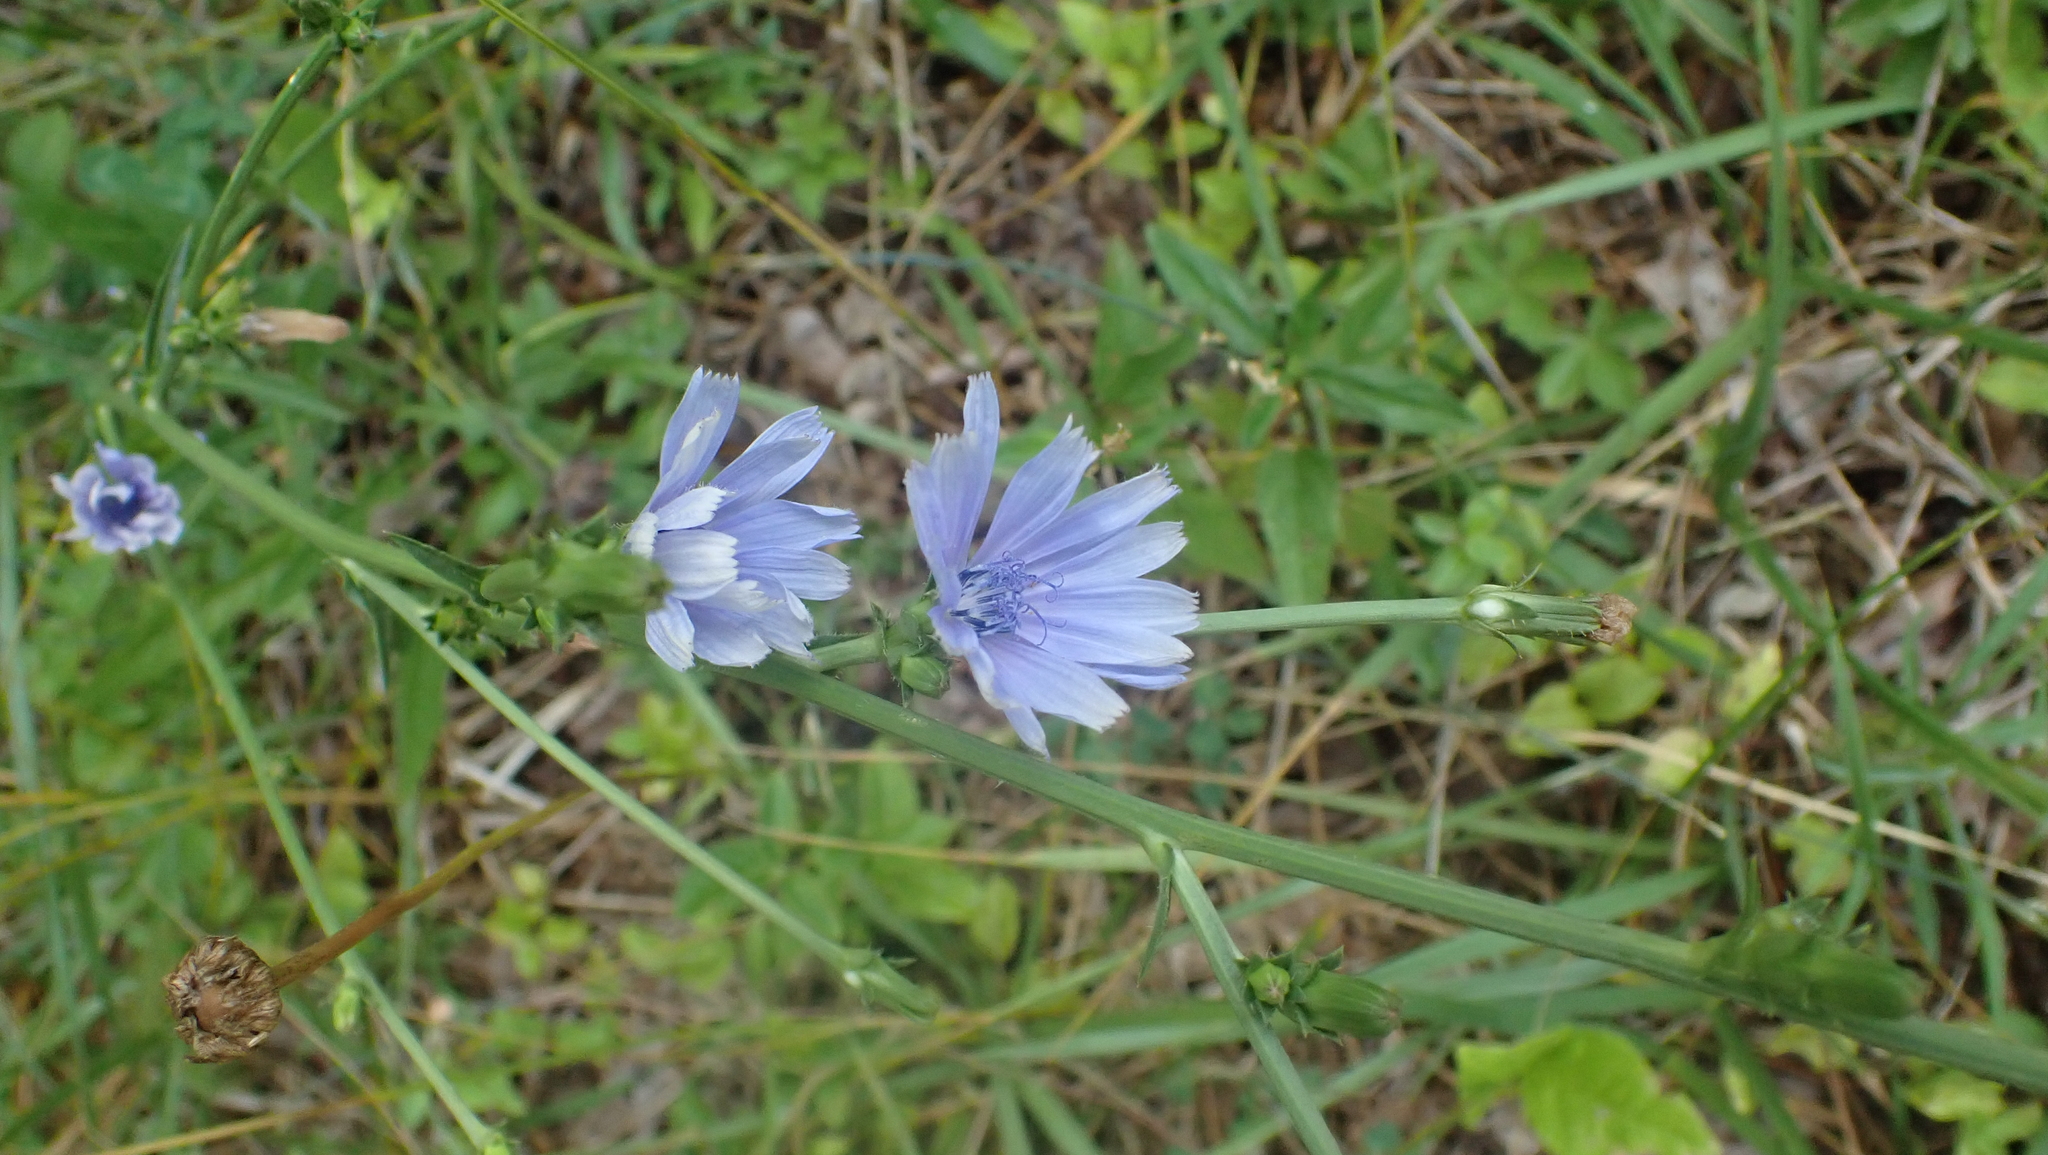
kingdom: Plantae
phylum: Tracheophyta
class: Magnoliopsida
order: Asterales
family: Asteraceae
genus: Cichorium
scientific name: Cichorium intybus
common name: Chicory
